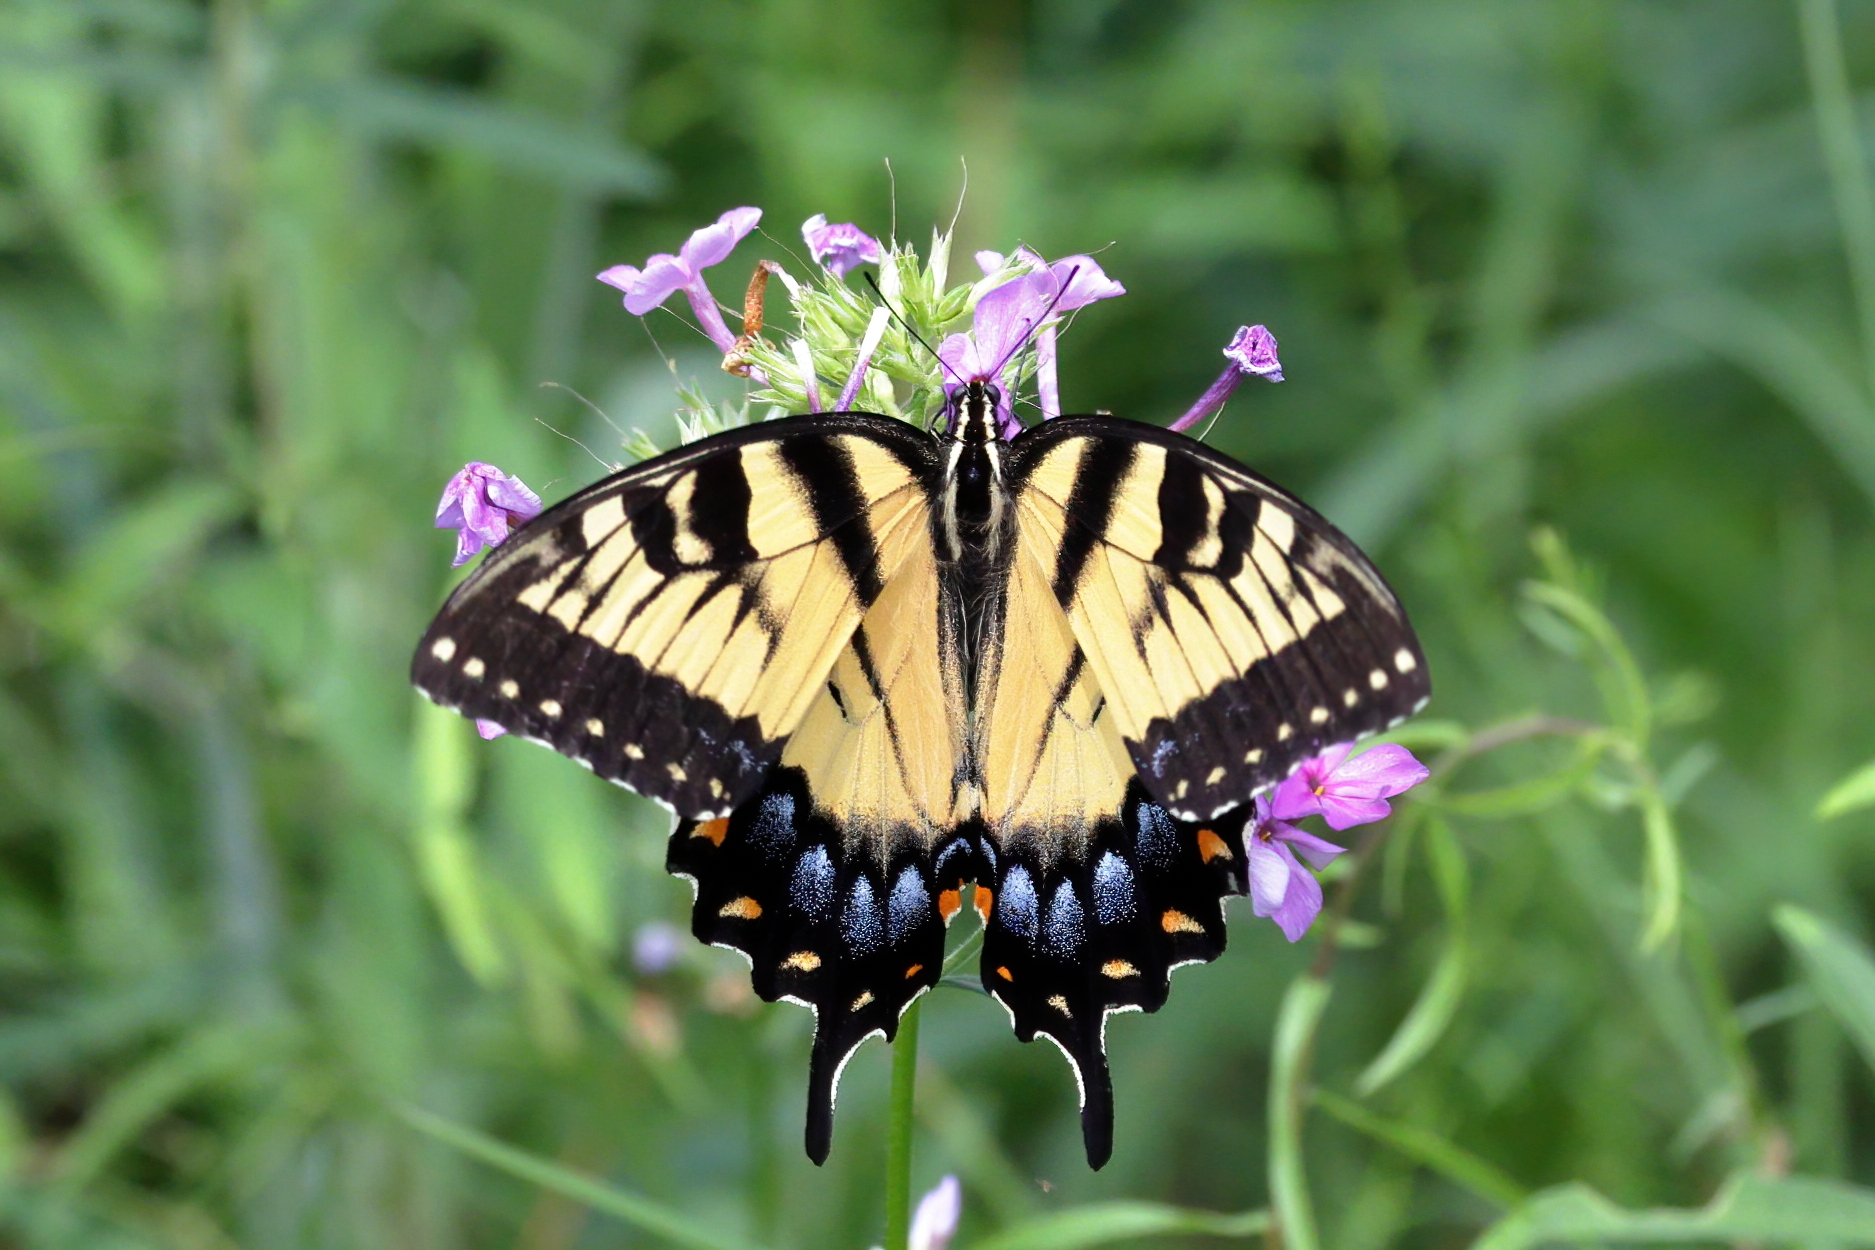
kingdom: Animalia
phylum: Arthropoda
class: Insecta
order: Lepidoptera
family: Papilionidae
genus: Papilio
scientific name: Papilio glaucus
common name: Tiger swallowtail
